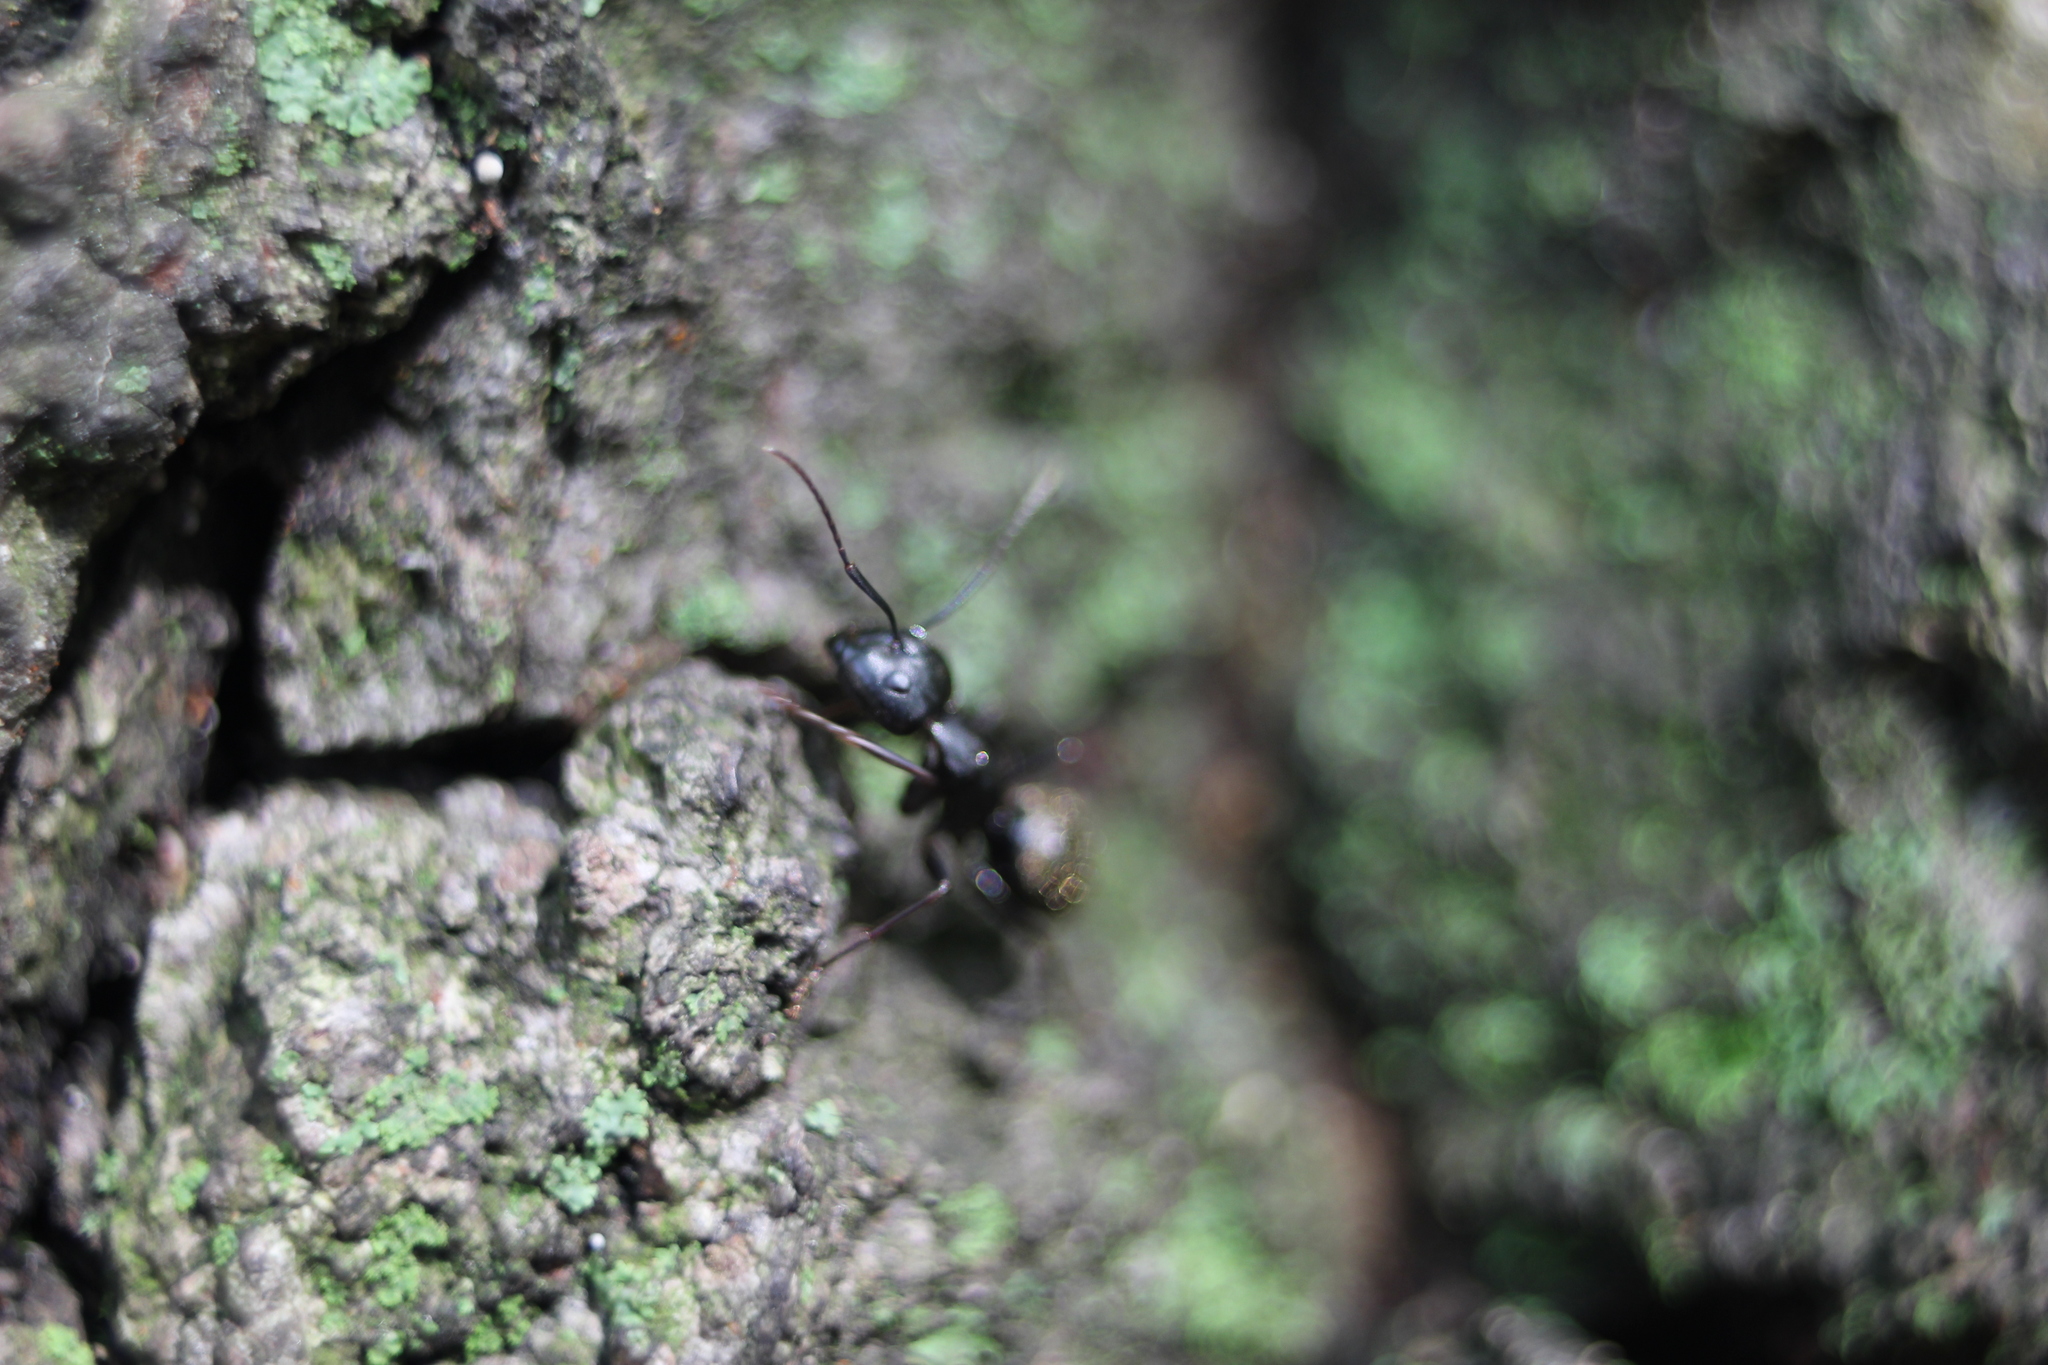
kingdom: Animalia
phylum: Arthropoda
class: Insecta
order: Hymenoptera
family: Formicidae
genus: Camponotus
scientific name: Camponotus pennsylvanicus
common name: Black carpenter ant
